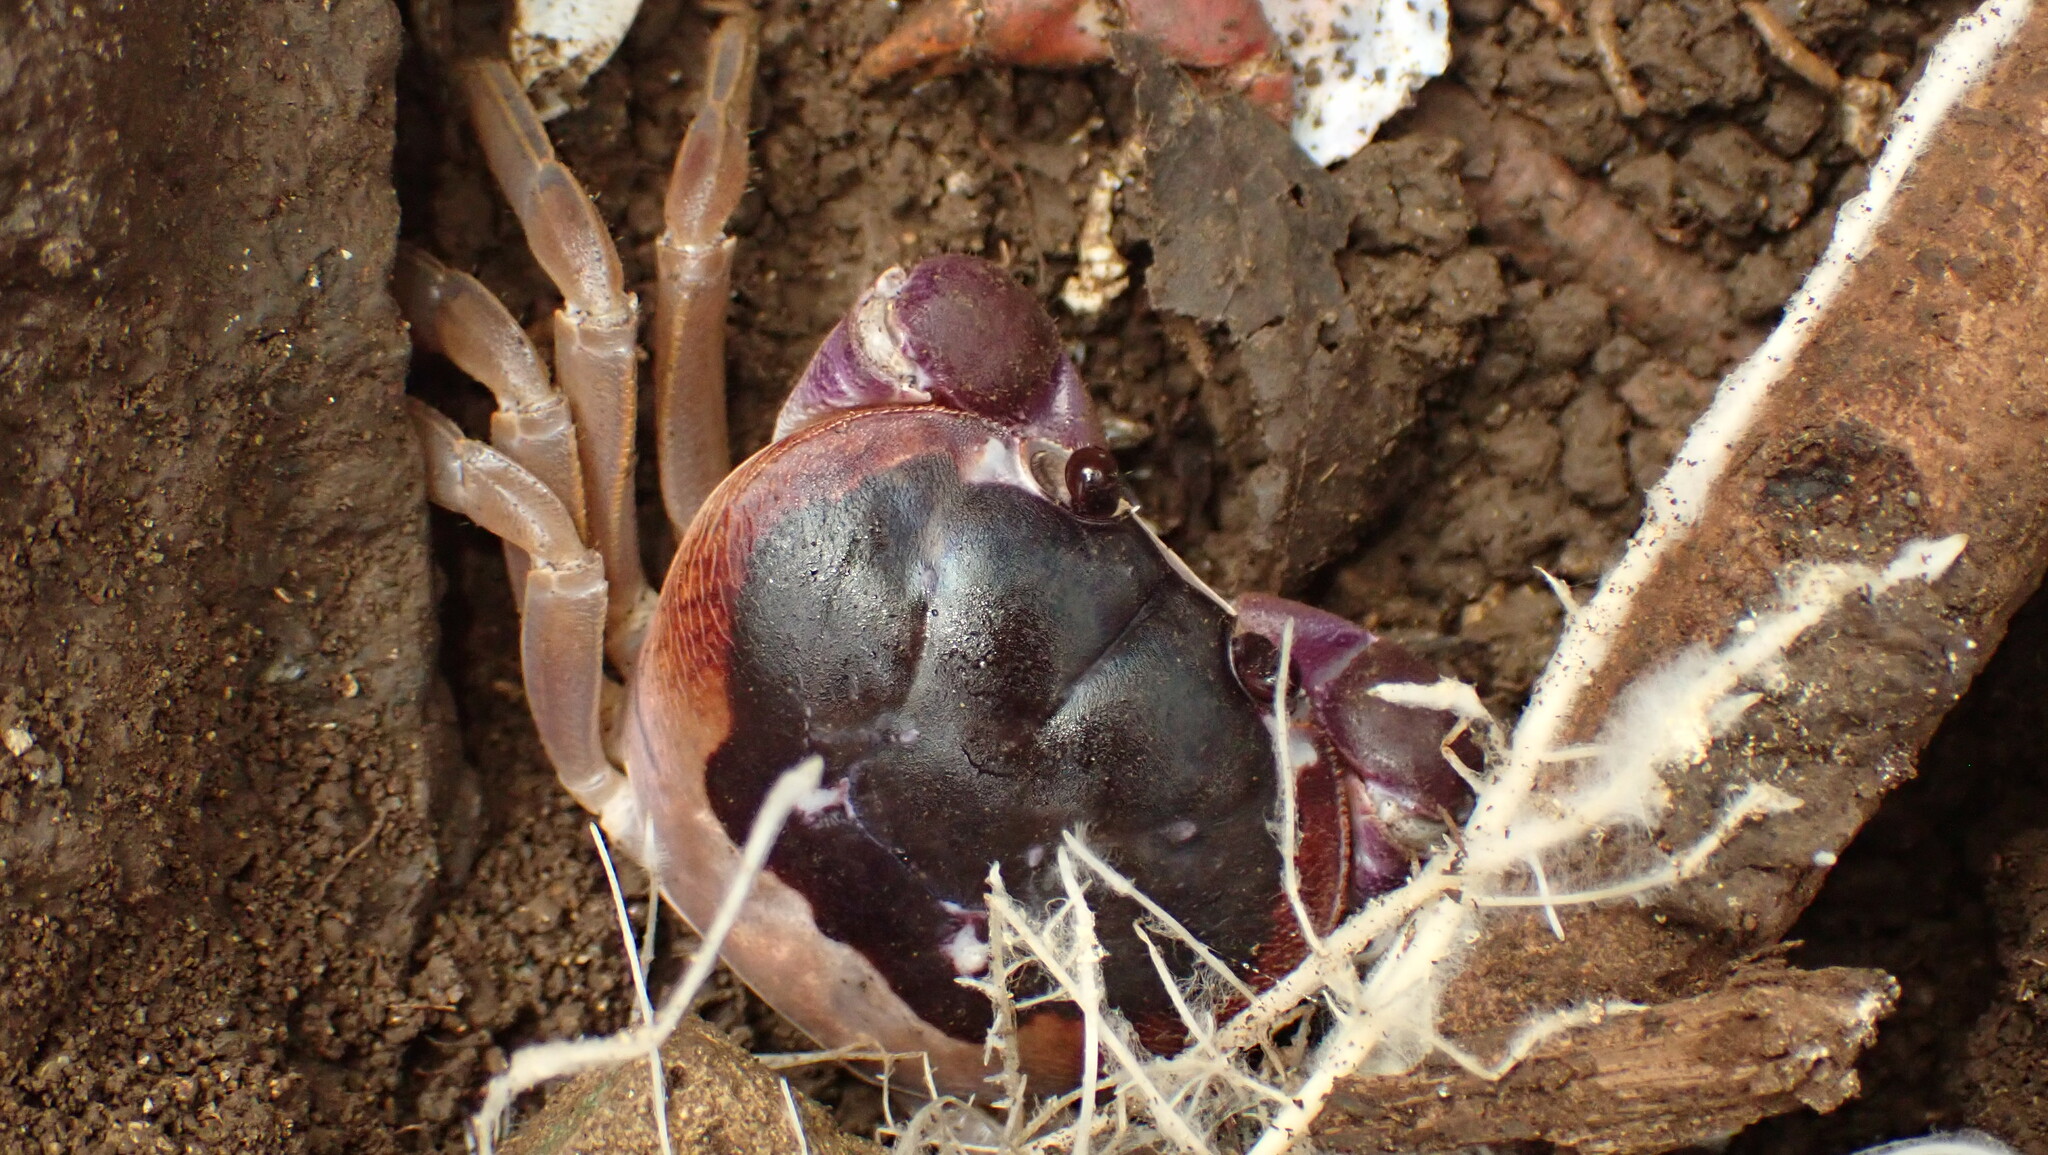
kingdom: Animalia
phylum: Arthropoda
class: Malacostraca
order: Decapoda
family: Gecarcinidae
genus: Gecarcinus
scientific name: Gecarcinus lateralis
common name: Bermuda land crab
